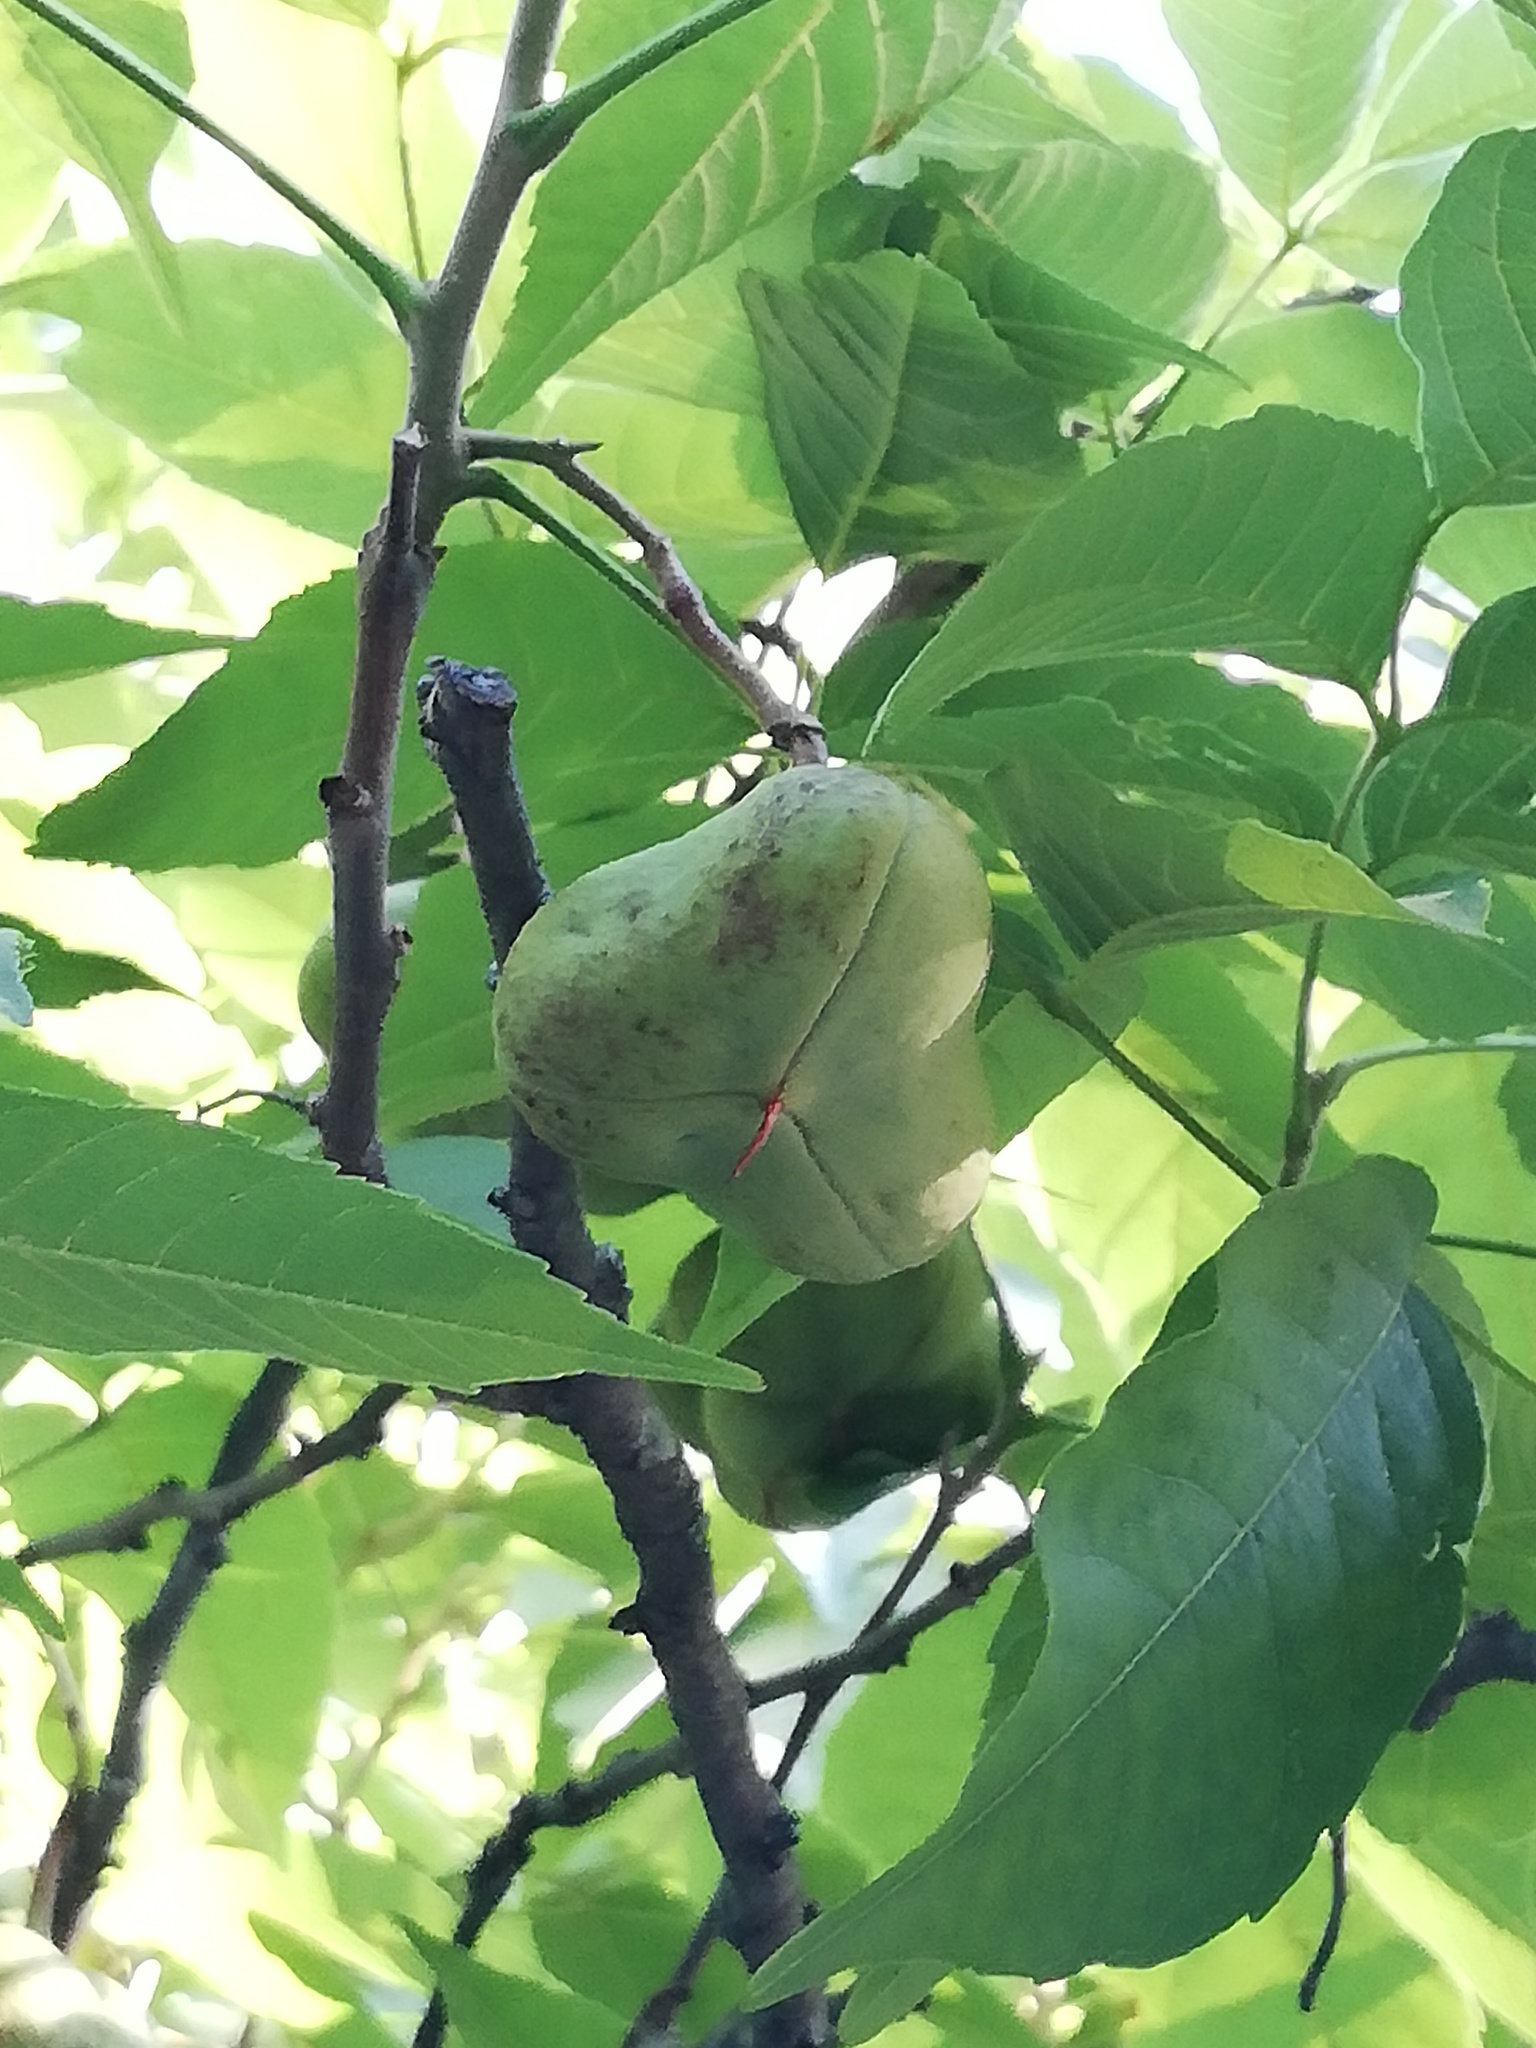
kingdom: Plantae
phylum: Tracheophyta
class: Magnoliopsida
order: Sapindales
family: Sapindaceae
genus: Ungnadia
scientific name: Ungnadia speciosa
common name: Texas-buckeye
